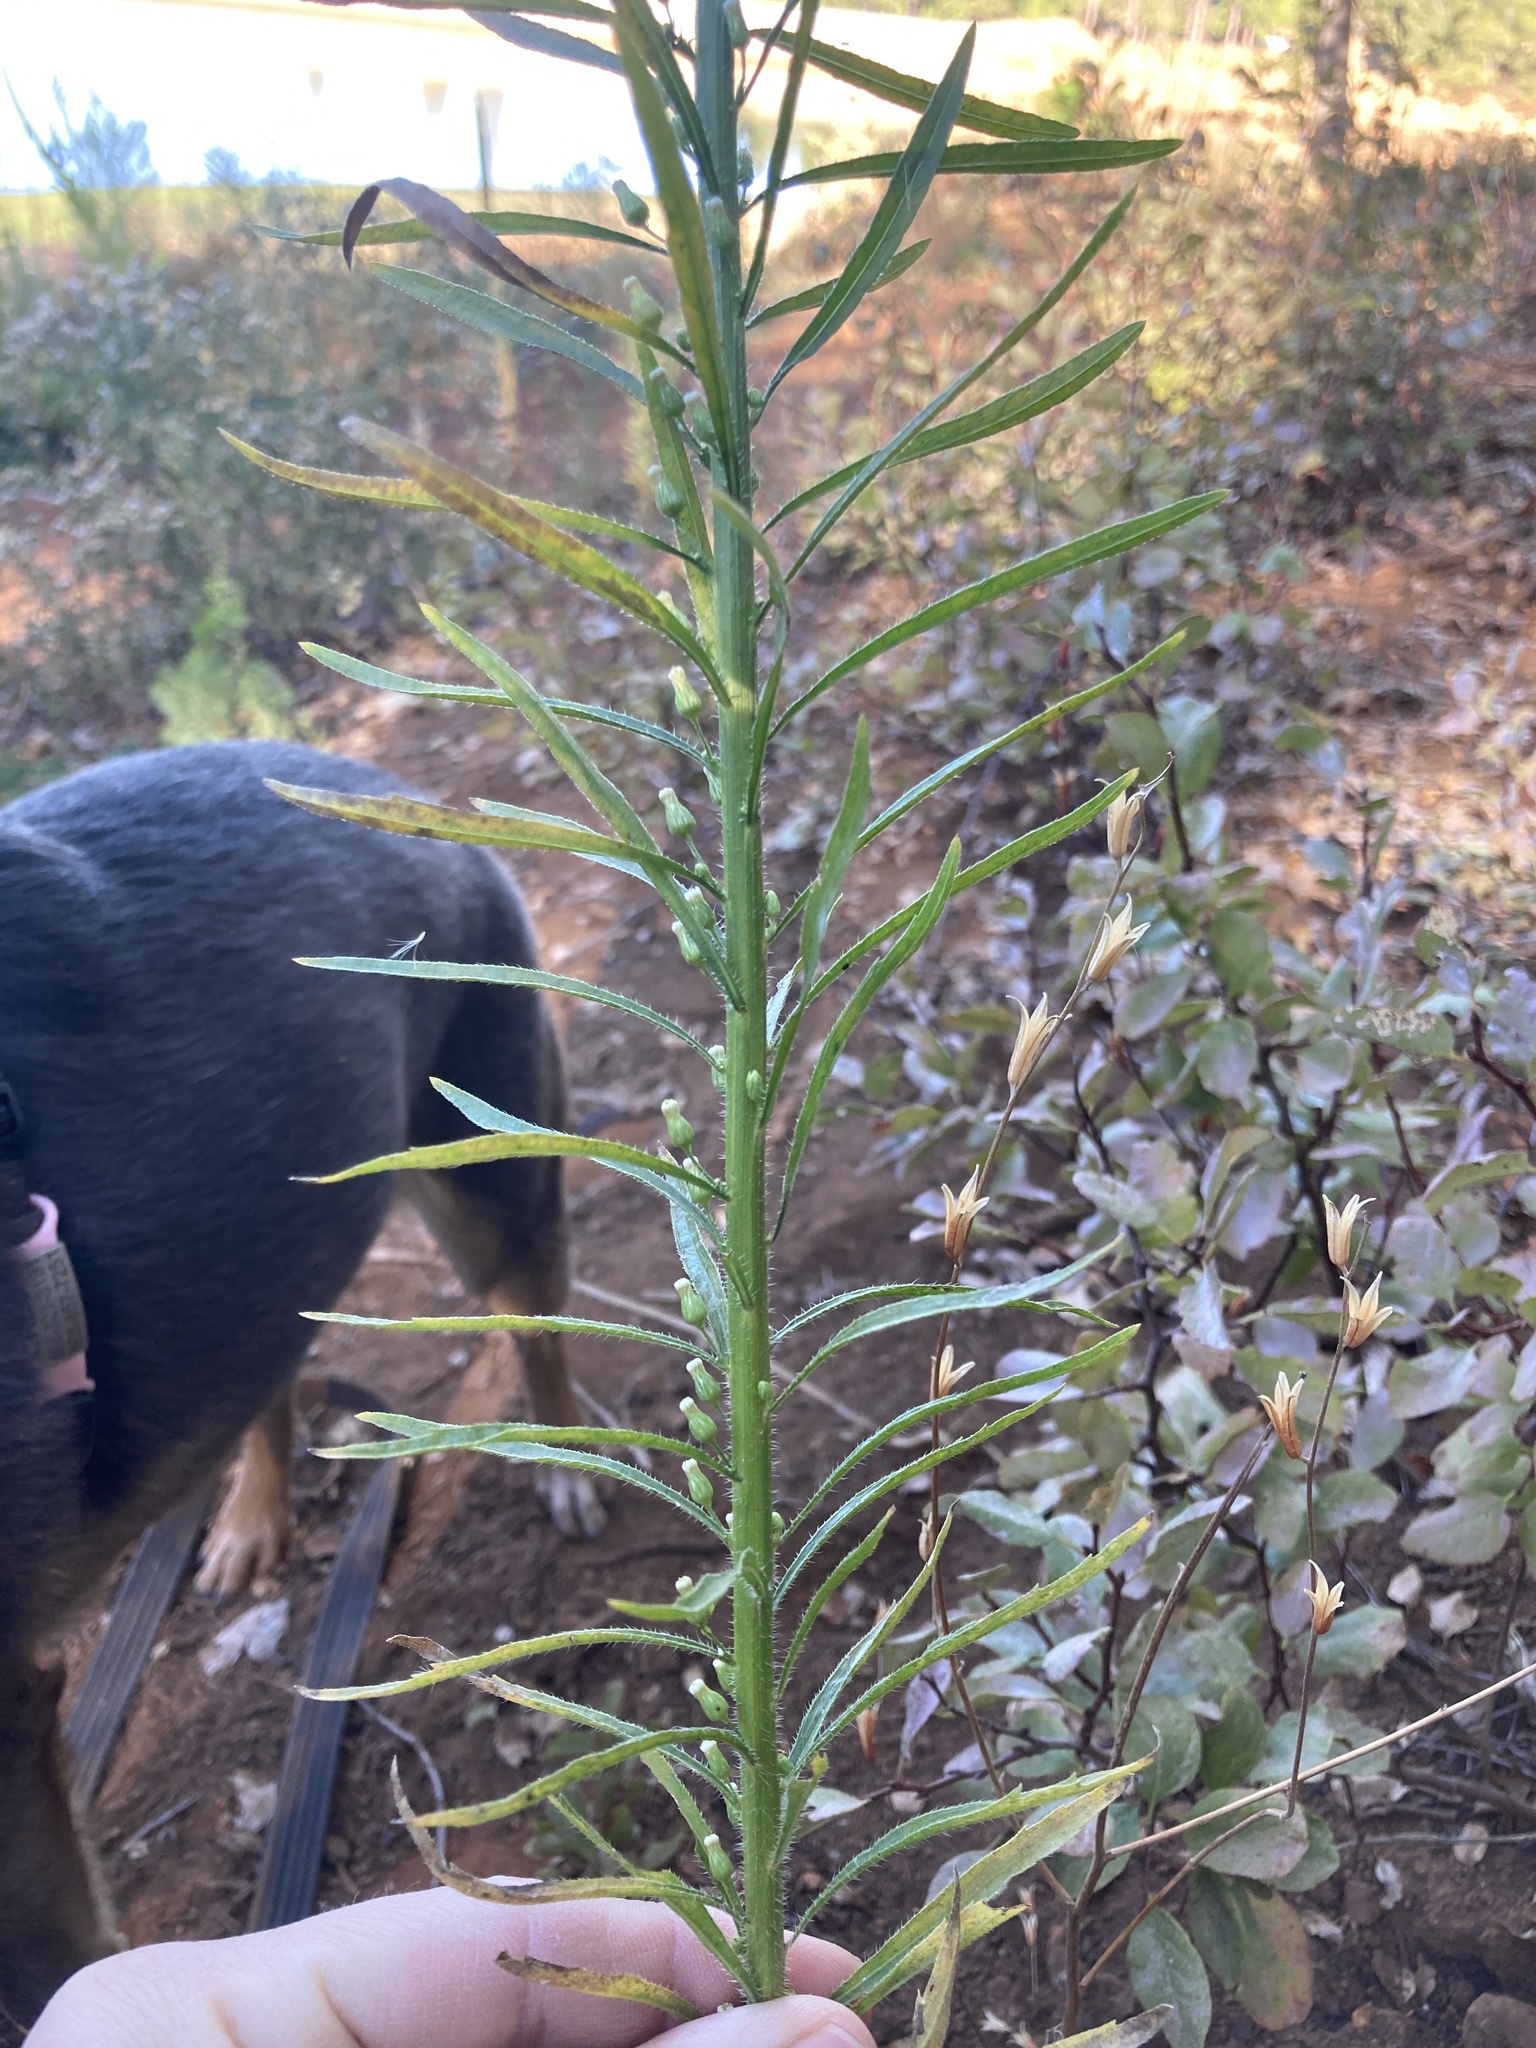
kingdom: Plantae
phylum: Tracheophyta
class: Magnoliopsida
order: Asterales
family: Asteraceae
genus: Erigeron
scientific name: Erigeron canadensis
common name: Canadian fleabane
